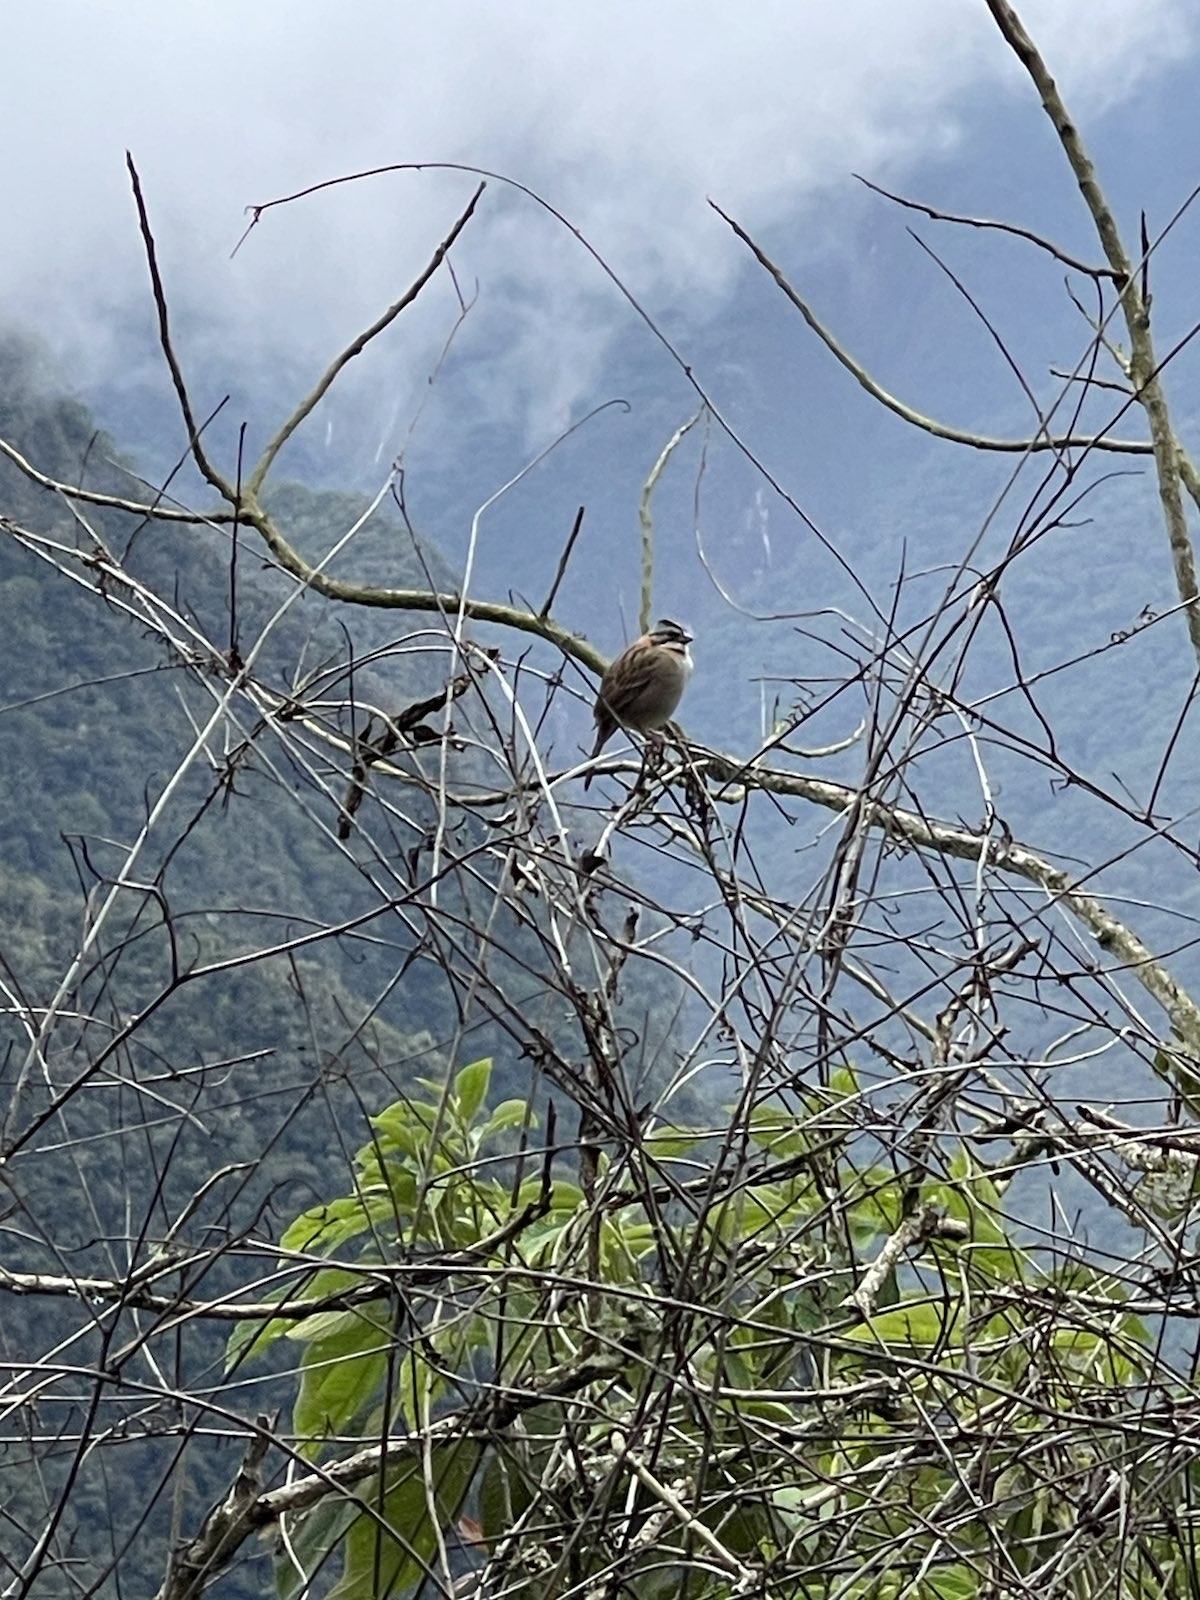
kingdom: Animalia
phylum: Chordata
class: Aves
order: Passeriformes
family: Passerellidae
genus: Zonotrichia
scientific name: Zonotrichia capensis
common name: Rufous-collared sparrow
